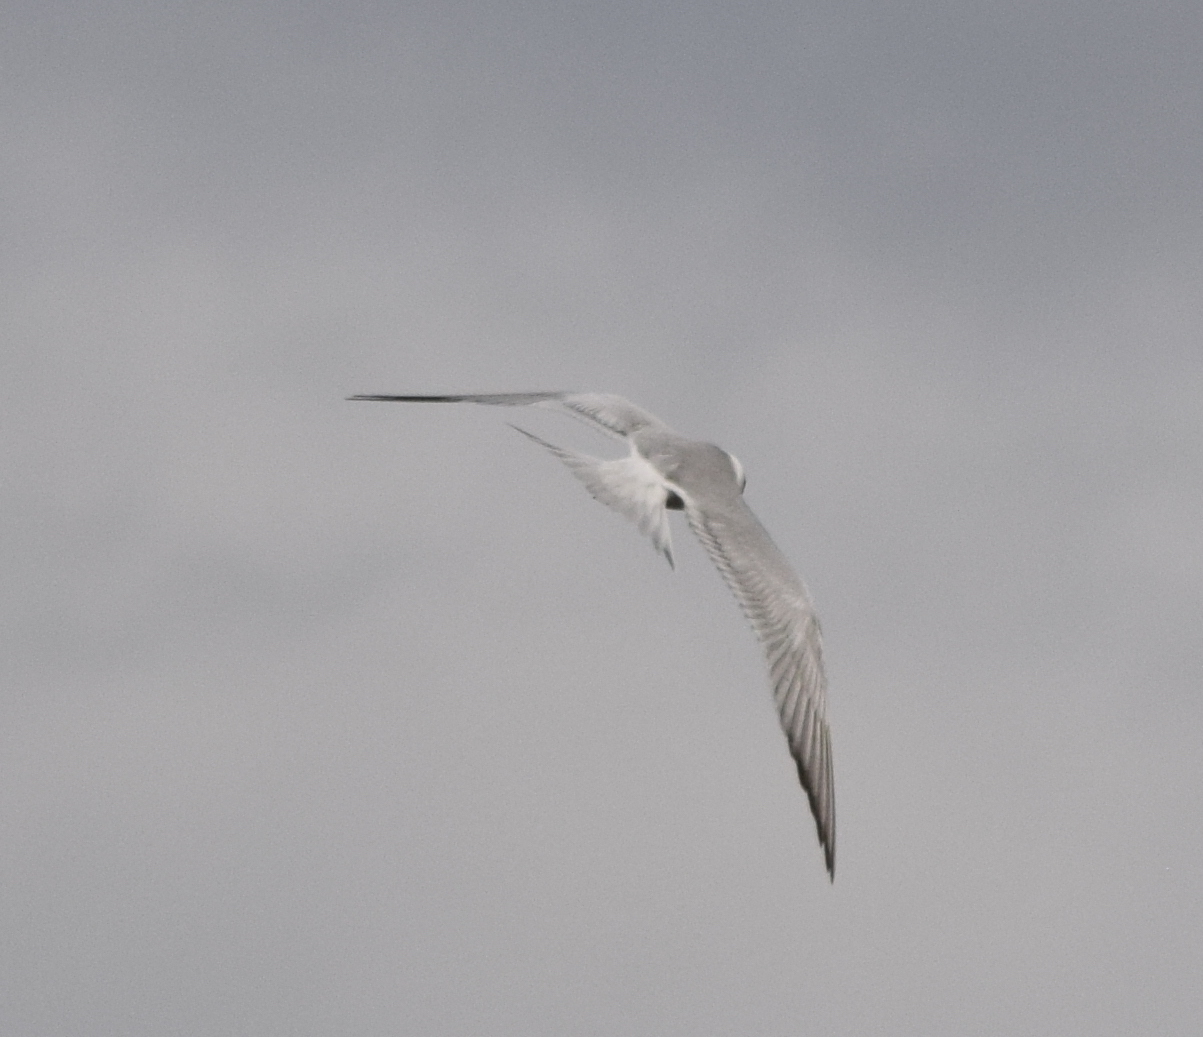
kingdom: Animalia
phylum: Chordata
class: Aves
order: Charadriiformes
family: Laridae
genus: Sterna
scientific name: Sterna forsteri
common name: Forster's tern
